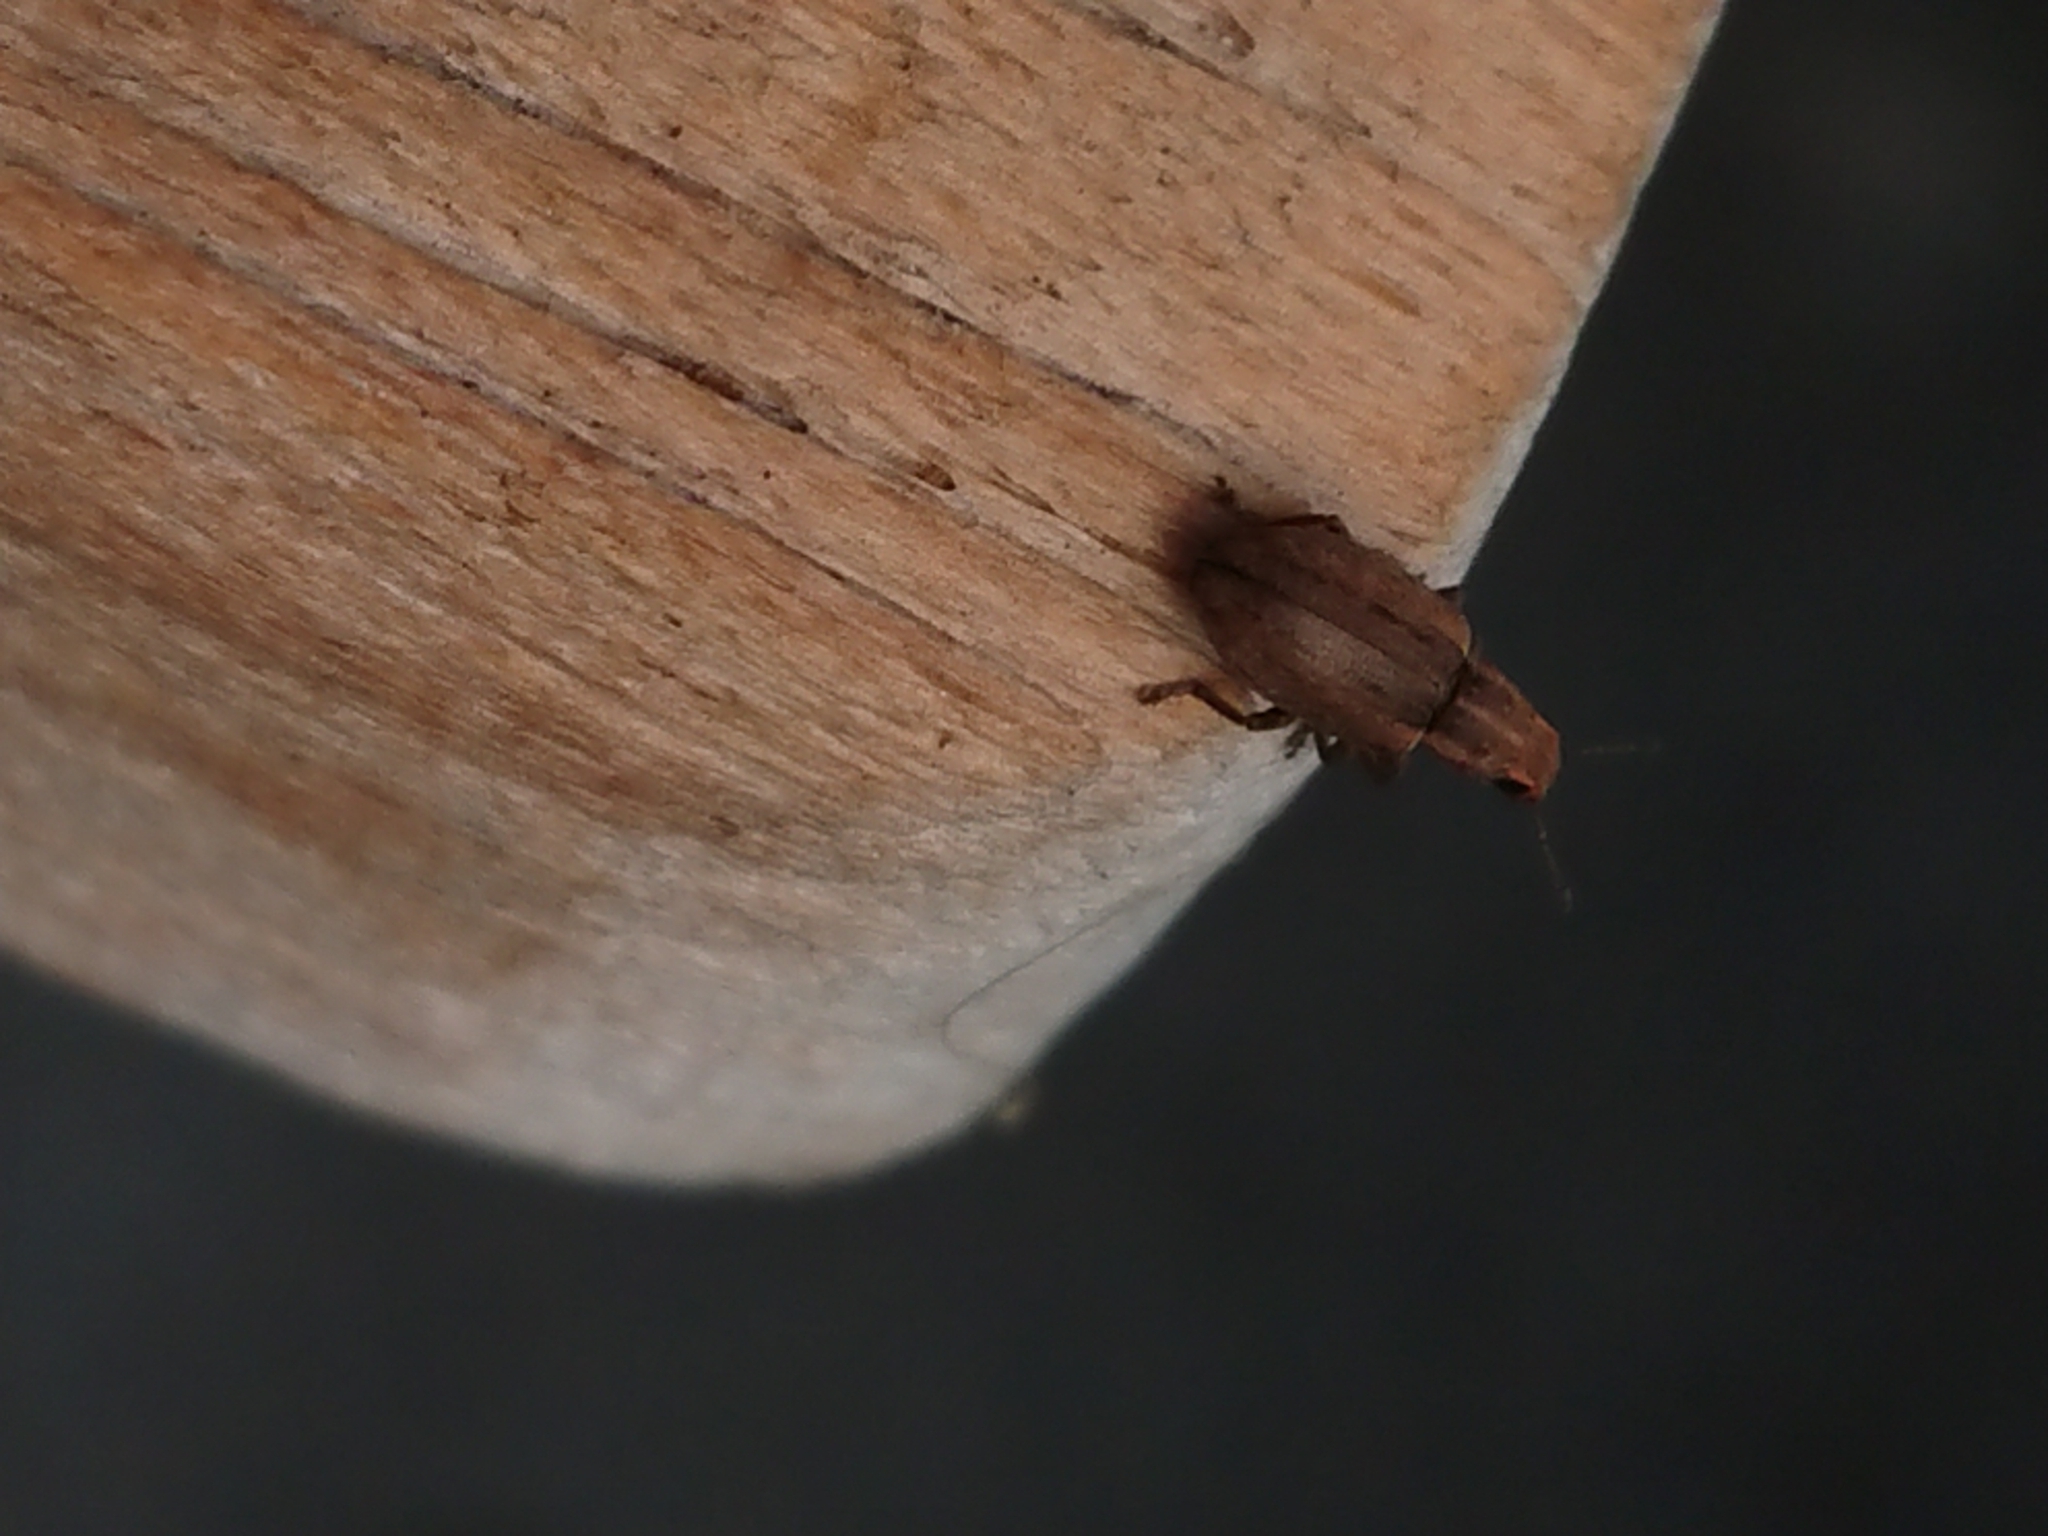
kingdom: Animalia
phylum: Arthropoda
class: Insecta
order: Coleoptera
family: Curculionidae
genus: Sitona
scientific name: Sitona obsoletus
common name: Weevil
